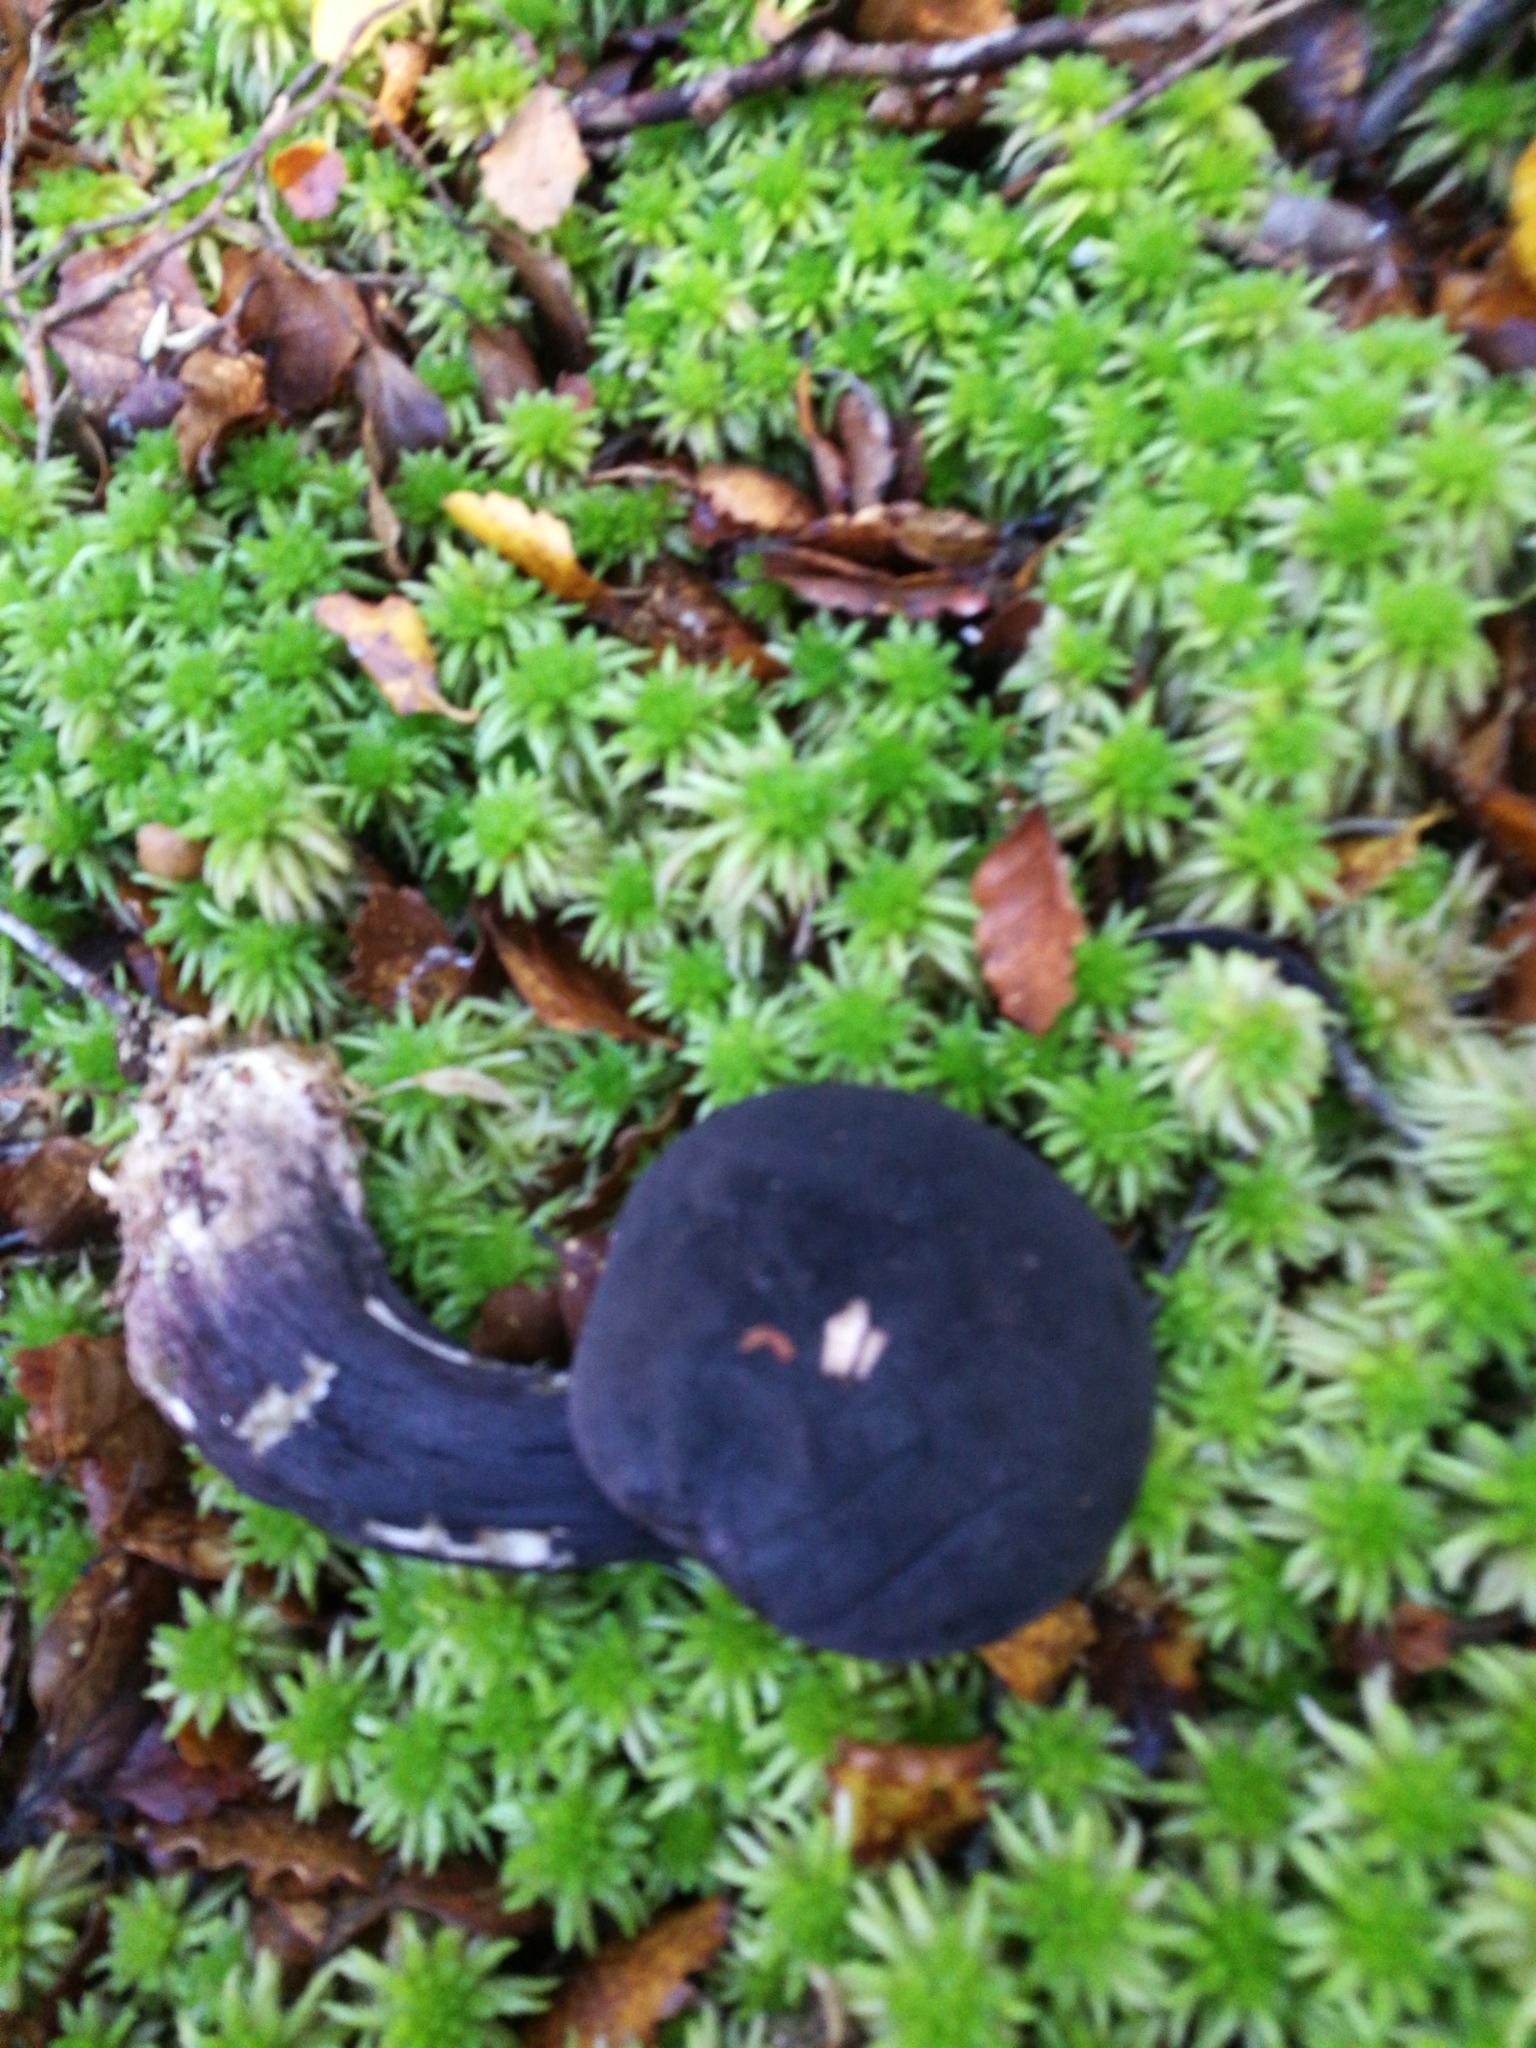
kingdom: Fungi
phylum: Basidiomycota
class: Agaricomycetes
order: Boletales
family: Boletaceae
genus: Porphyrellus
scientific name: Porphyrellus formosus
